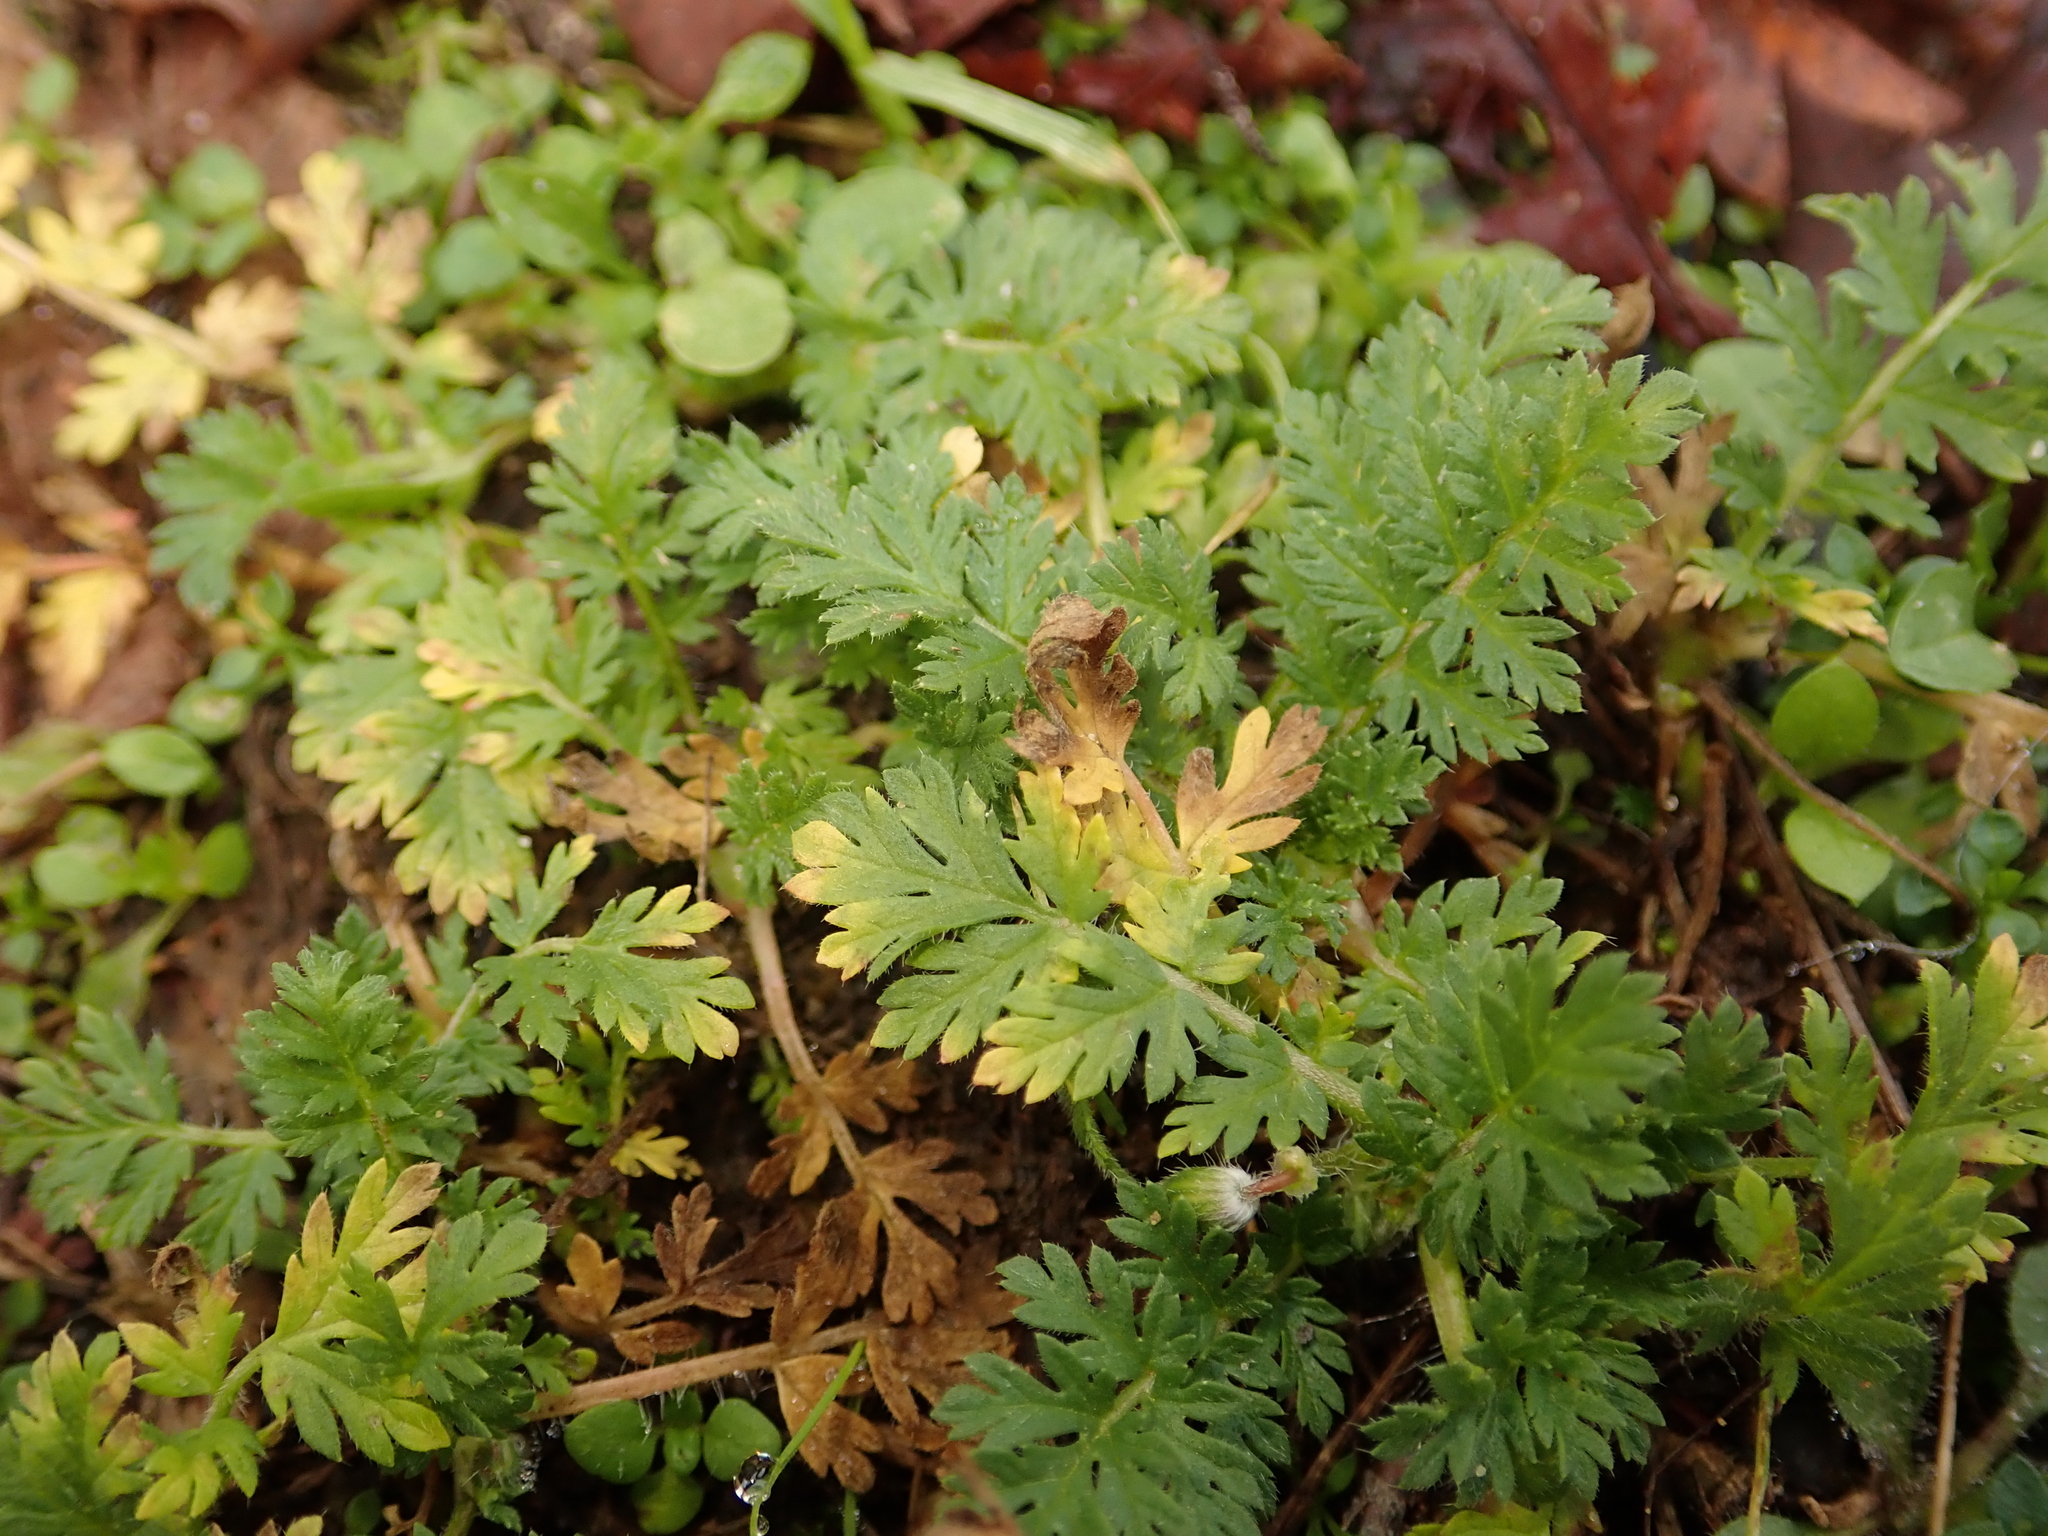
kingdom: Plantae
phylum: Tracheophyta
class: Magnoliopsida
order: Geraniales
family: Geraniaceae
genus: Erodium
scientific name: Erodium cicutarium
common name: Common stork's-bill
